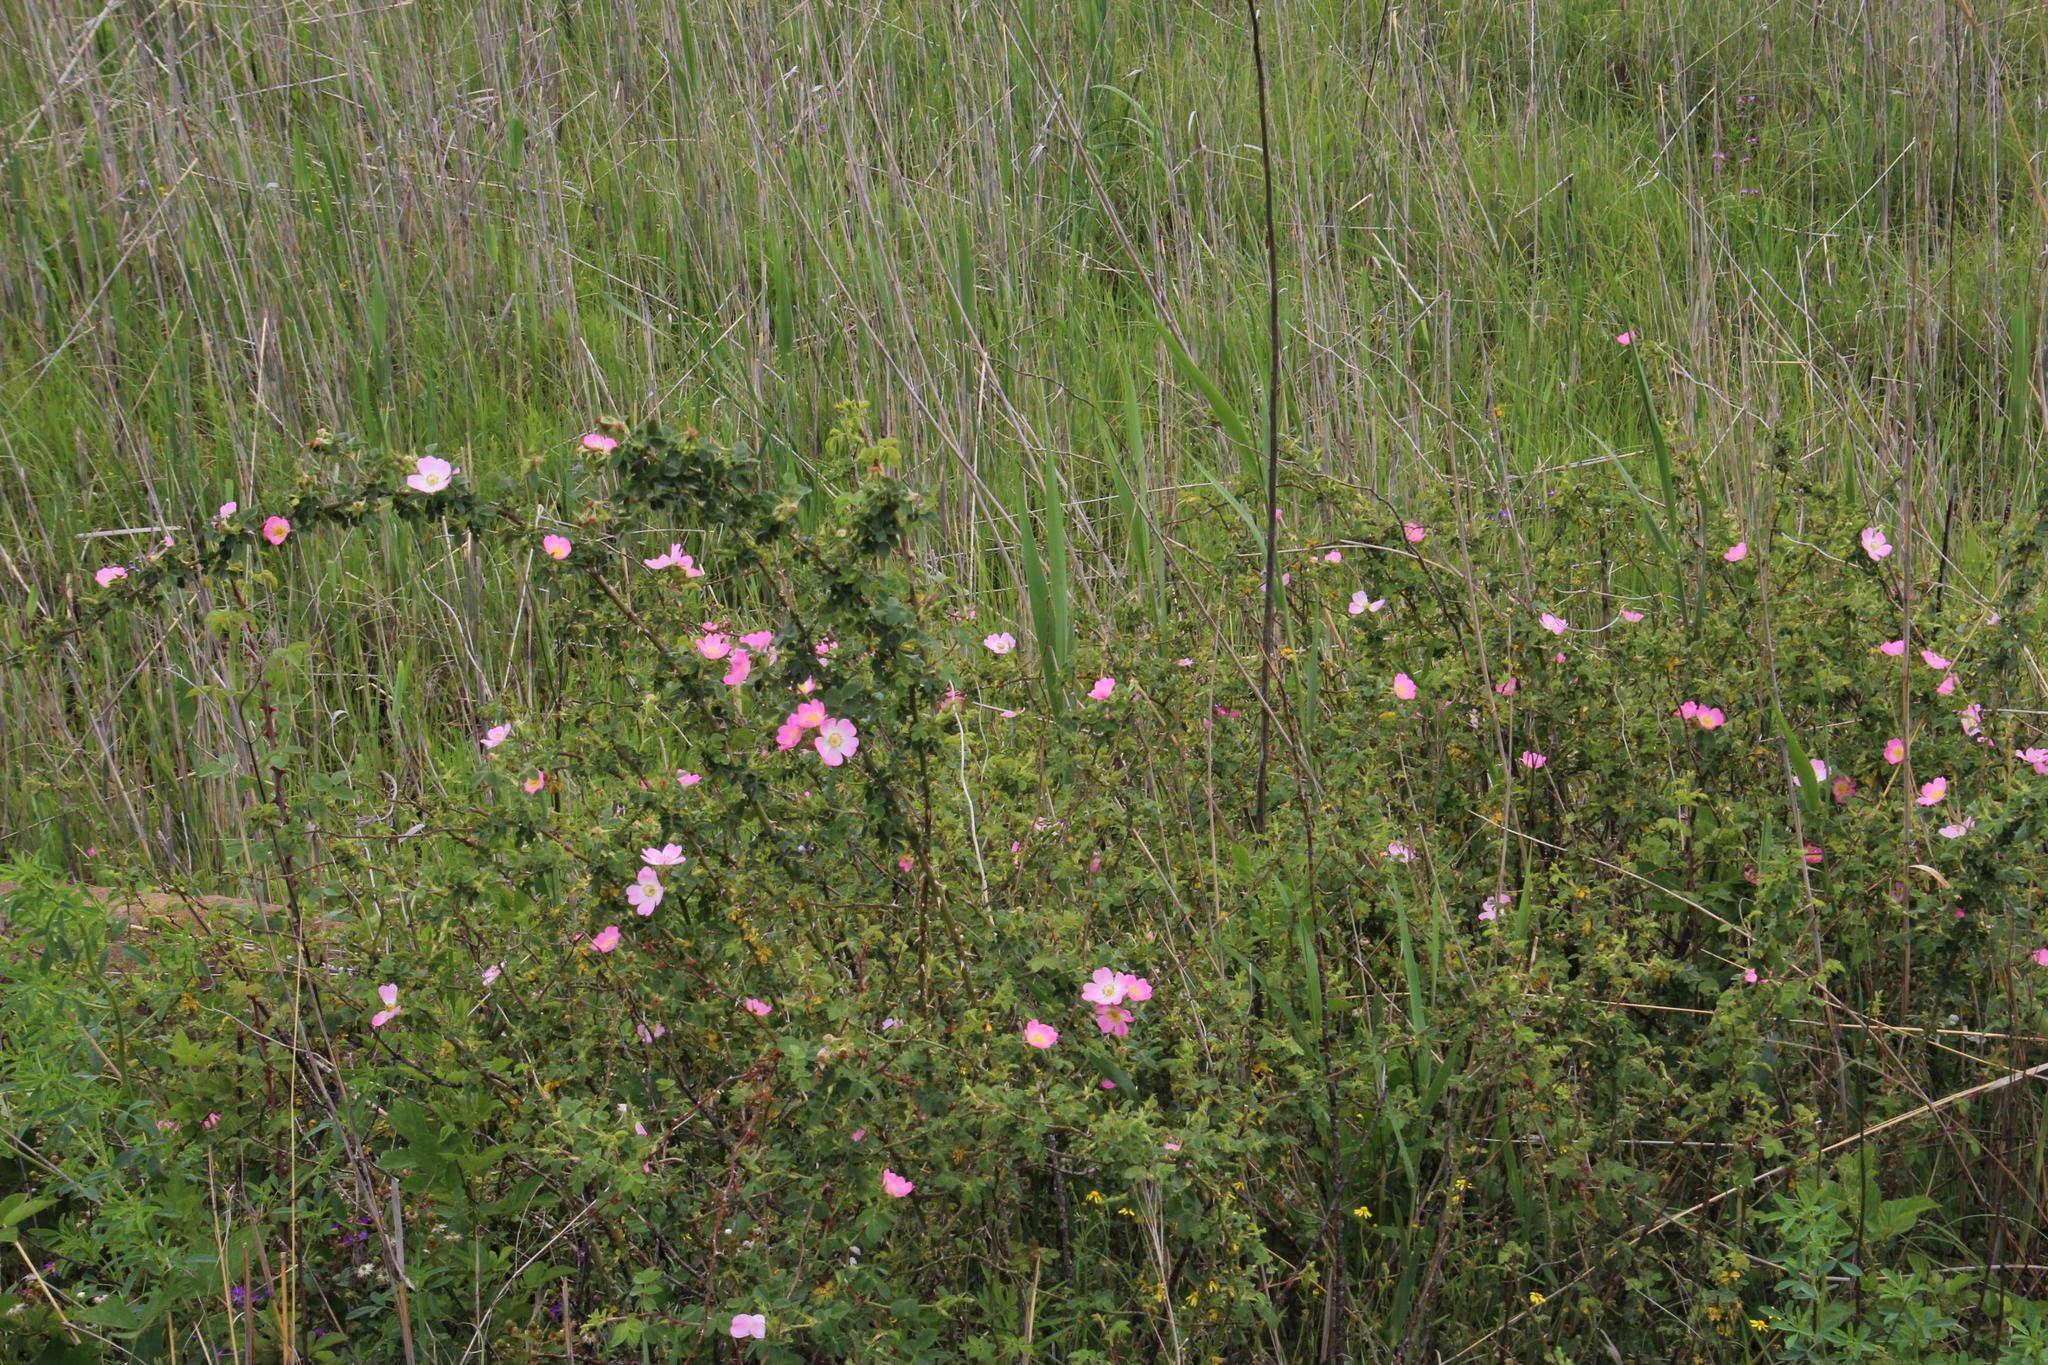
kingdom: Plantae
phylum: Tracheophyta
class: Magnoliopsida
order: Rosales
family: Rosaceae
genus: Rosa
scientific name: Rosa rubiginosa
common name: Sweet-briar
